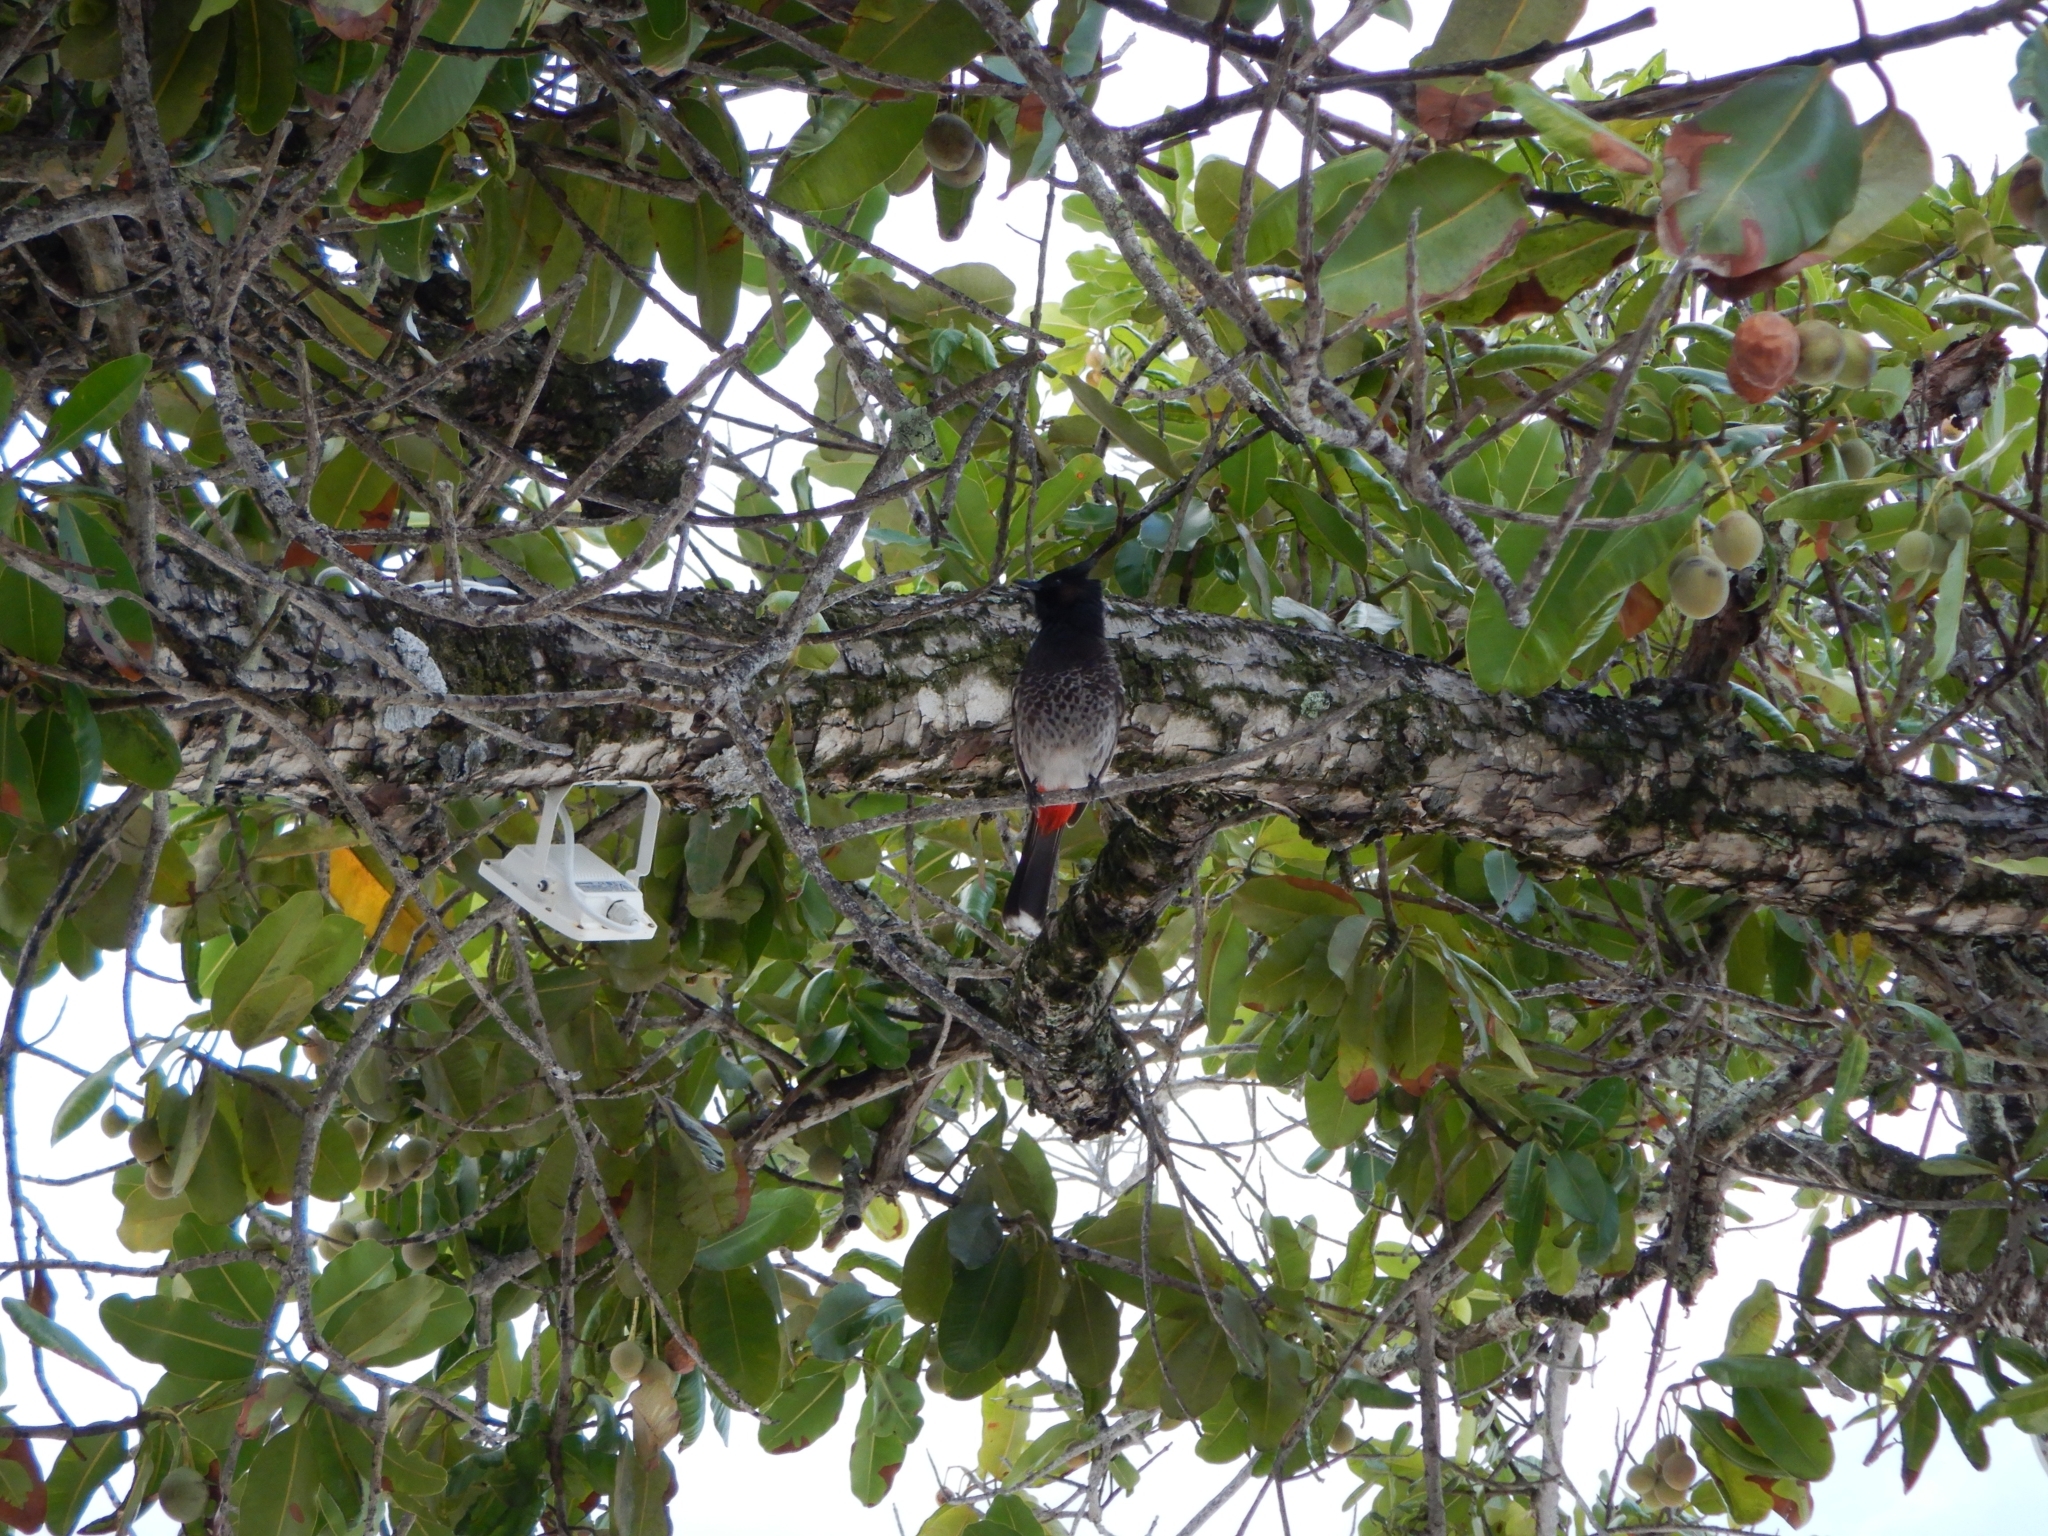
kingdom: Animalia
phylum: Chordata
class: Aves
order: Passeriformes
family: Pycnonotidae
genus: Pycnonotus
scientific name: Pycnonotus cafer
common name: Red-vented bulbul
